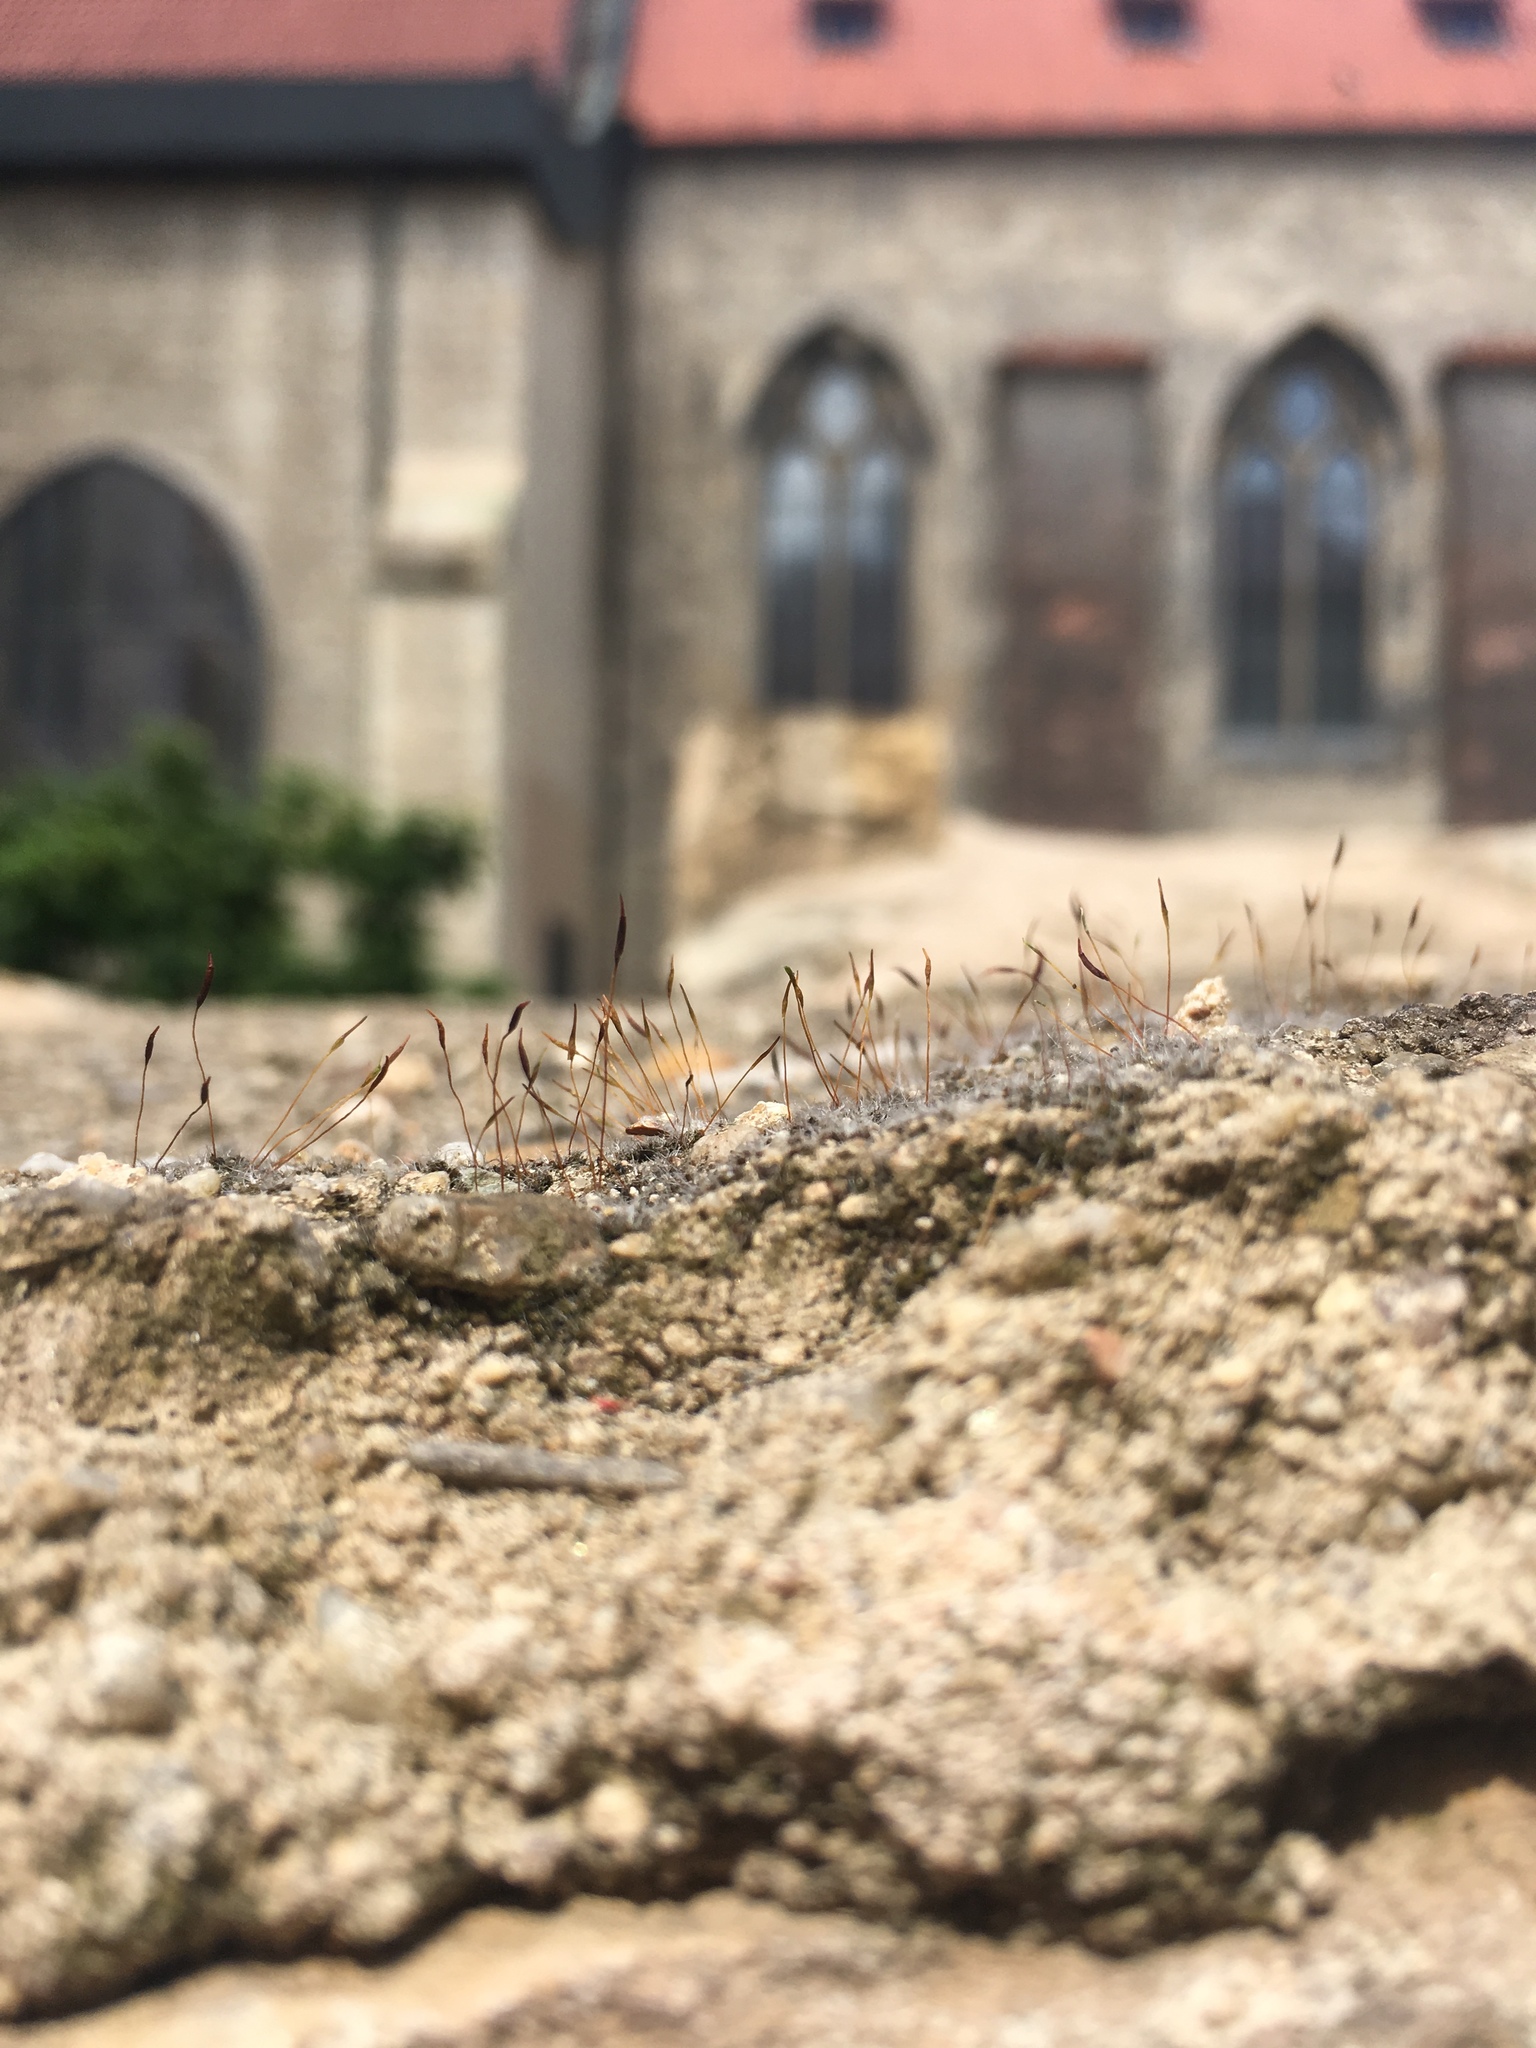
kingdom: Plantae
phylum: Bryophyta
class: Bryopsida
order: Pottiales
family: Pottiaceae
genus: Tortula
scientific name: Tortula muralis
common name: Wall screw-moss
